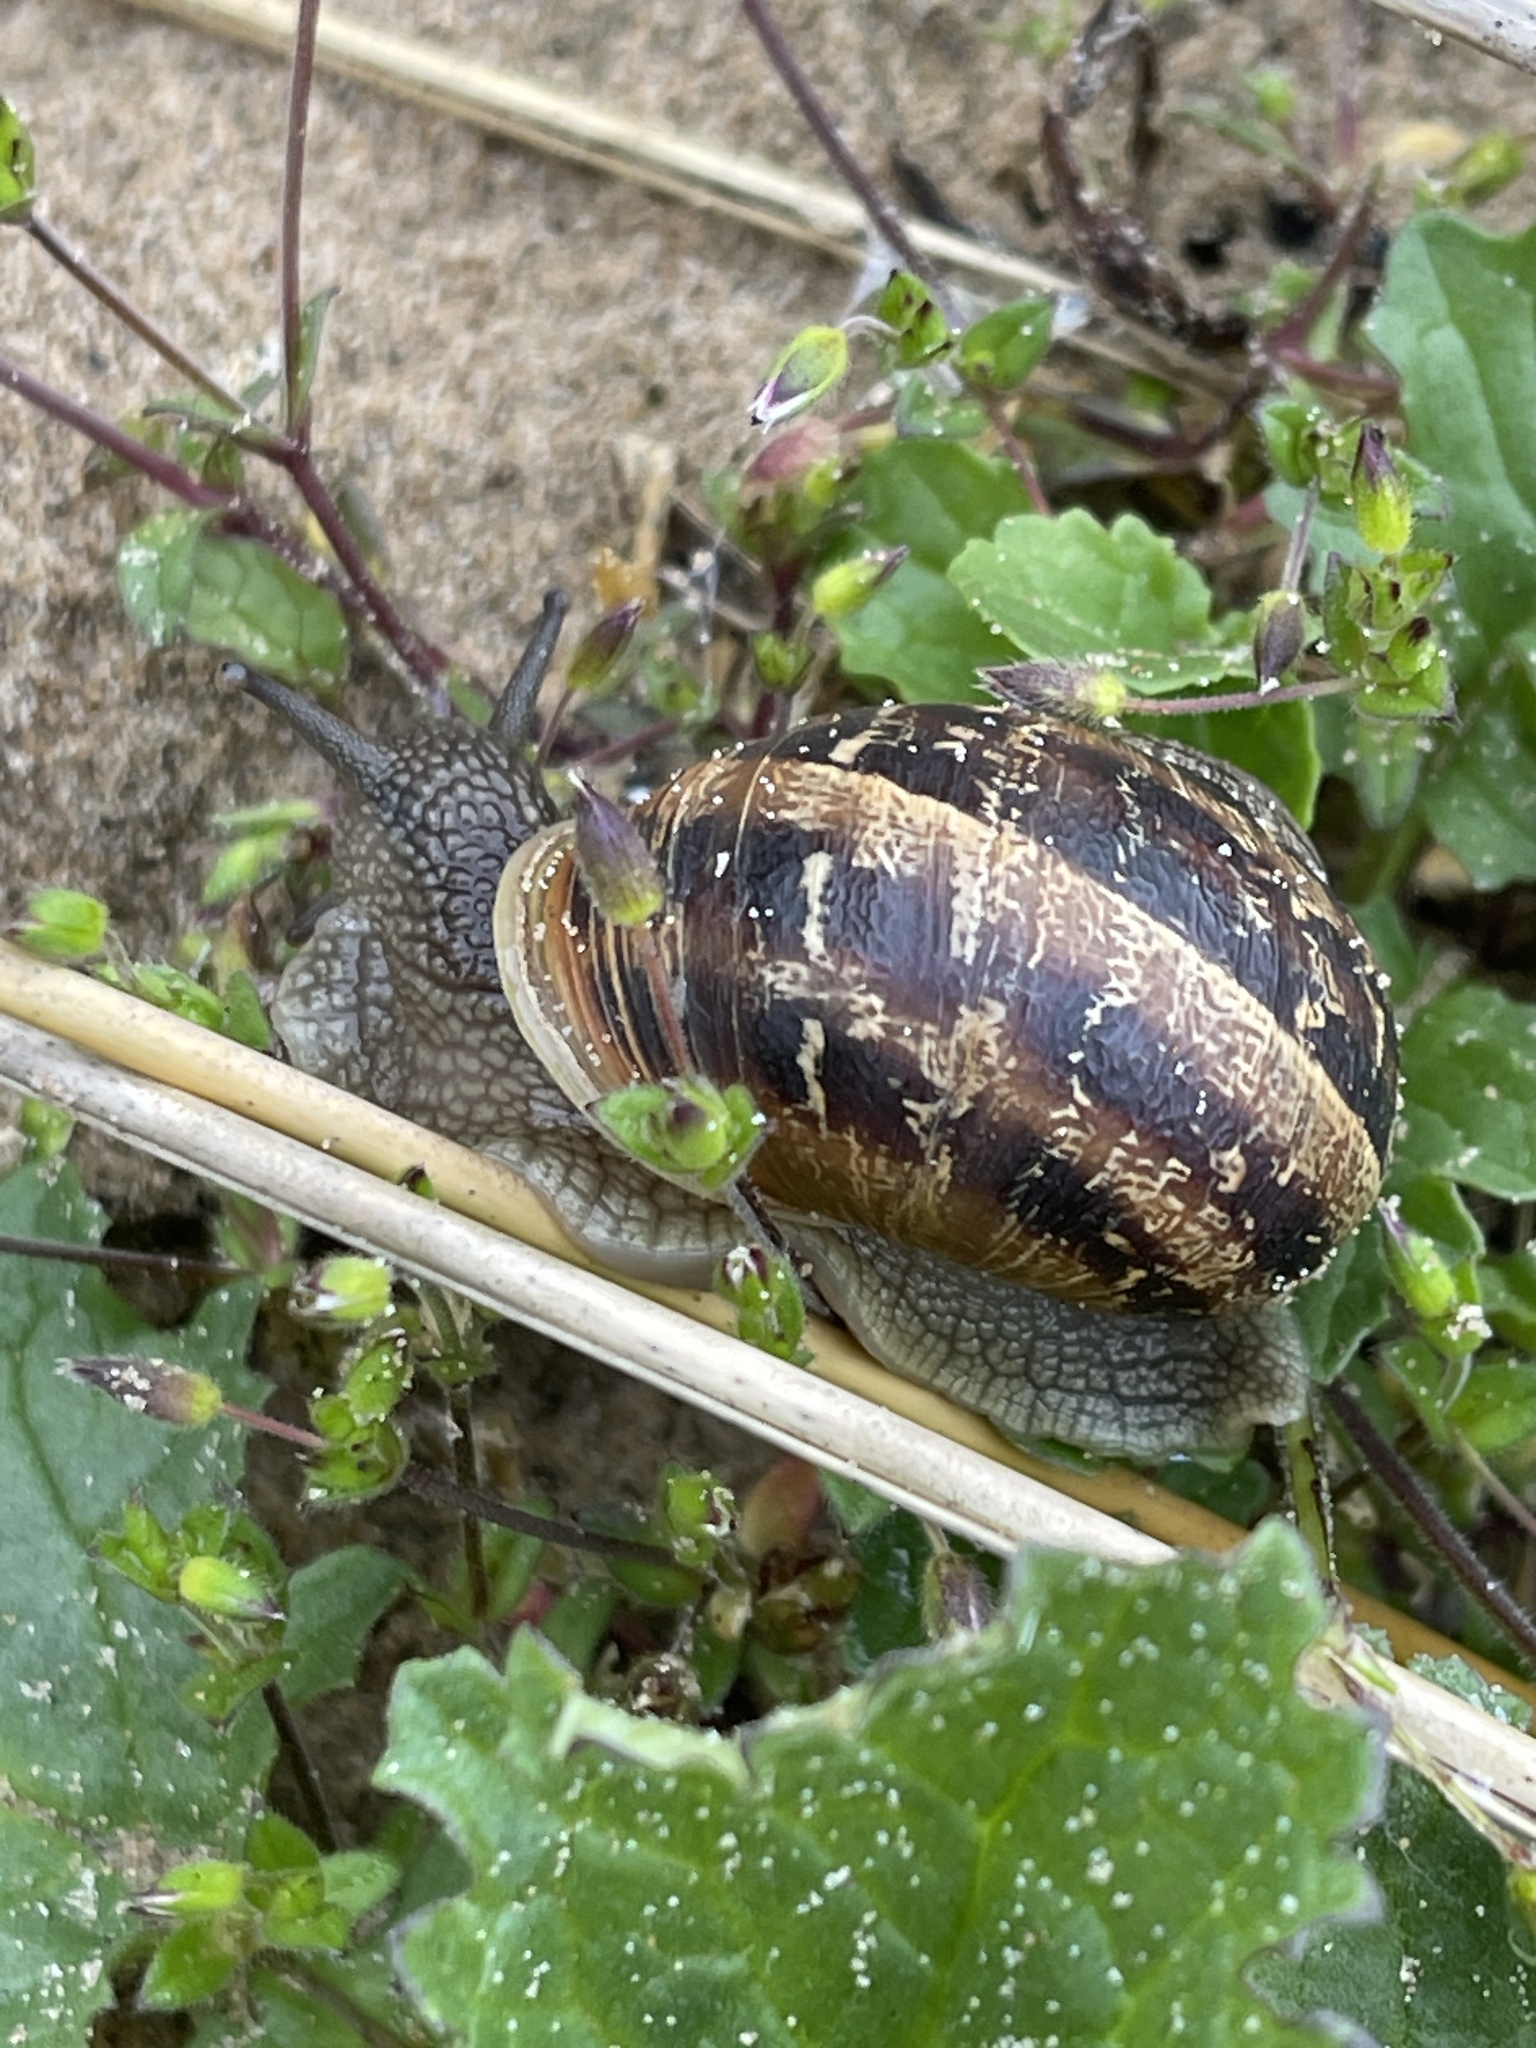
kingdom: Animalia
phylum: Mollusca
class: Gastropoda
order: Stylommatophora
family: Helicidae
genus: Cornu
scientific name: Cornu aspersum
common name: Brown garden snail
